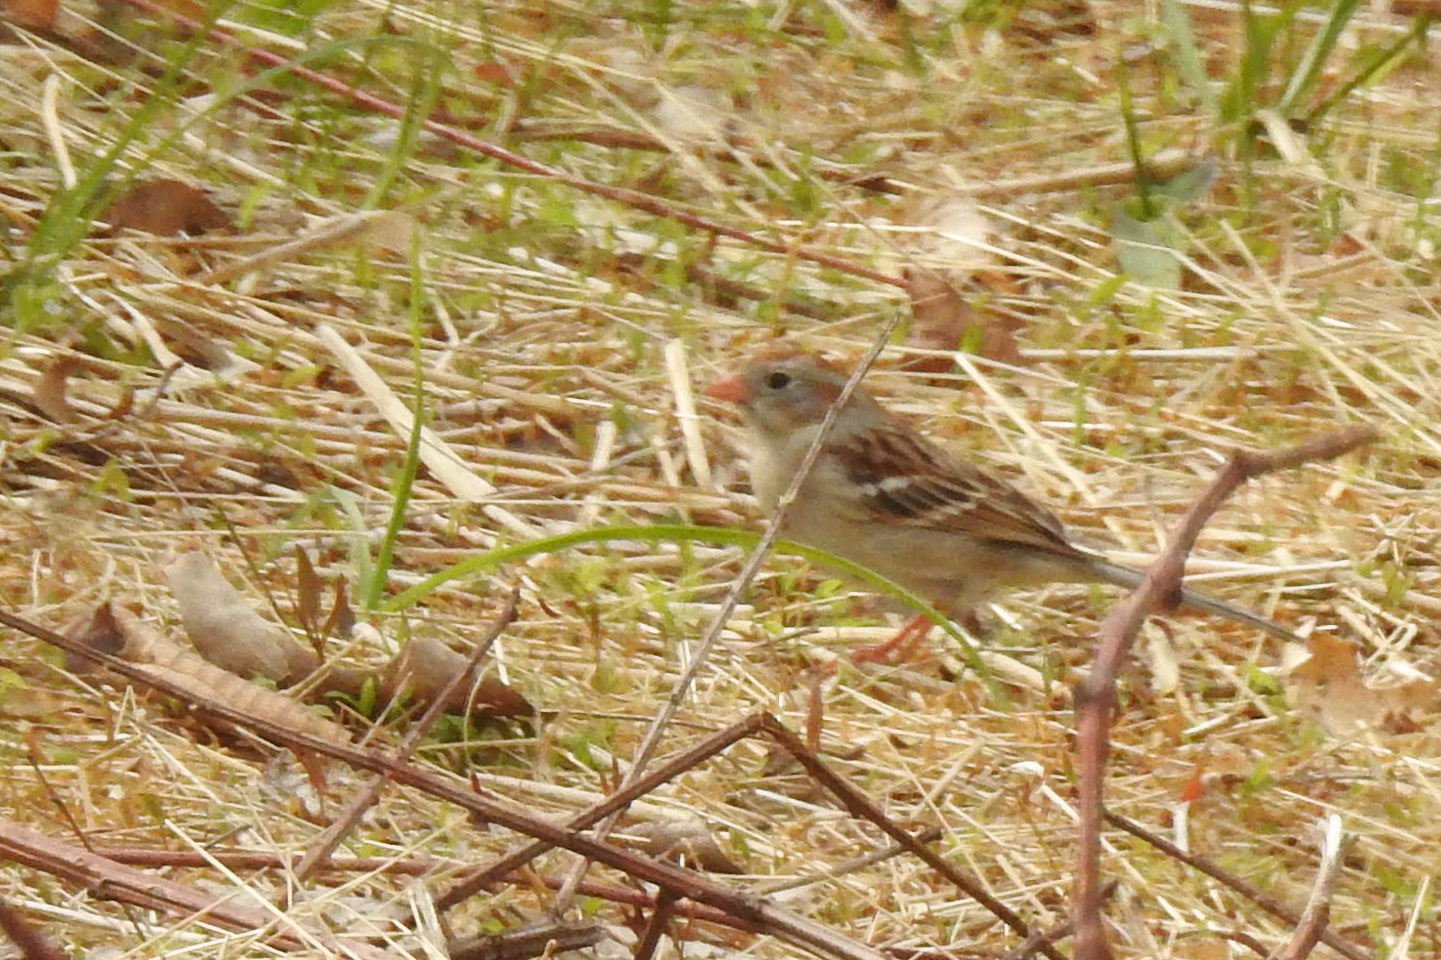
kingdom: Animalia
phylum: Chordata
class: Aves
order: Passeriformes
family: Passerellidae
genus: Spizella
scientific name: Spizella pusilla
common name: Field sparrow
